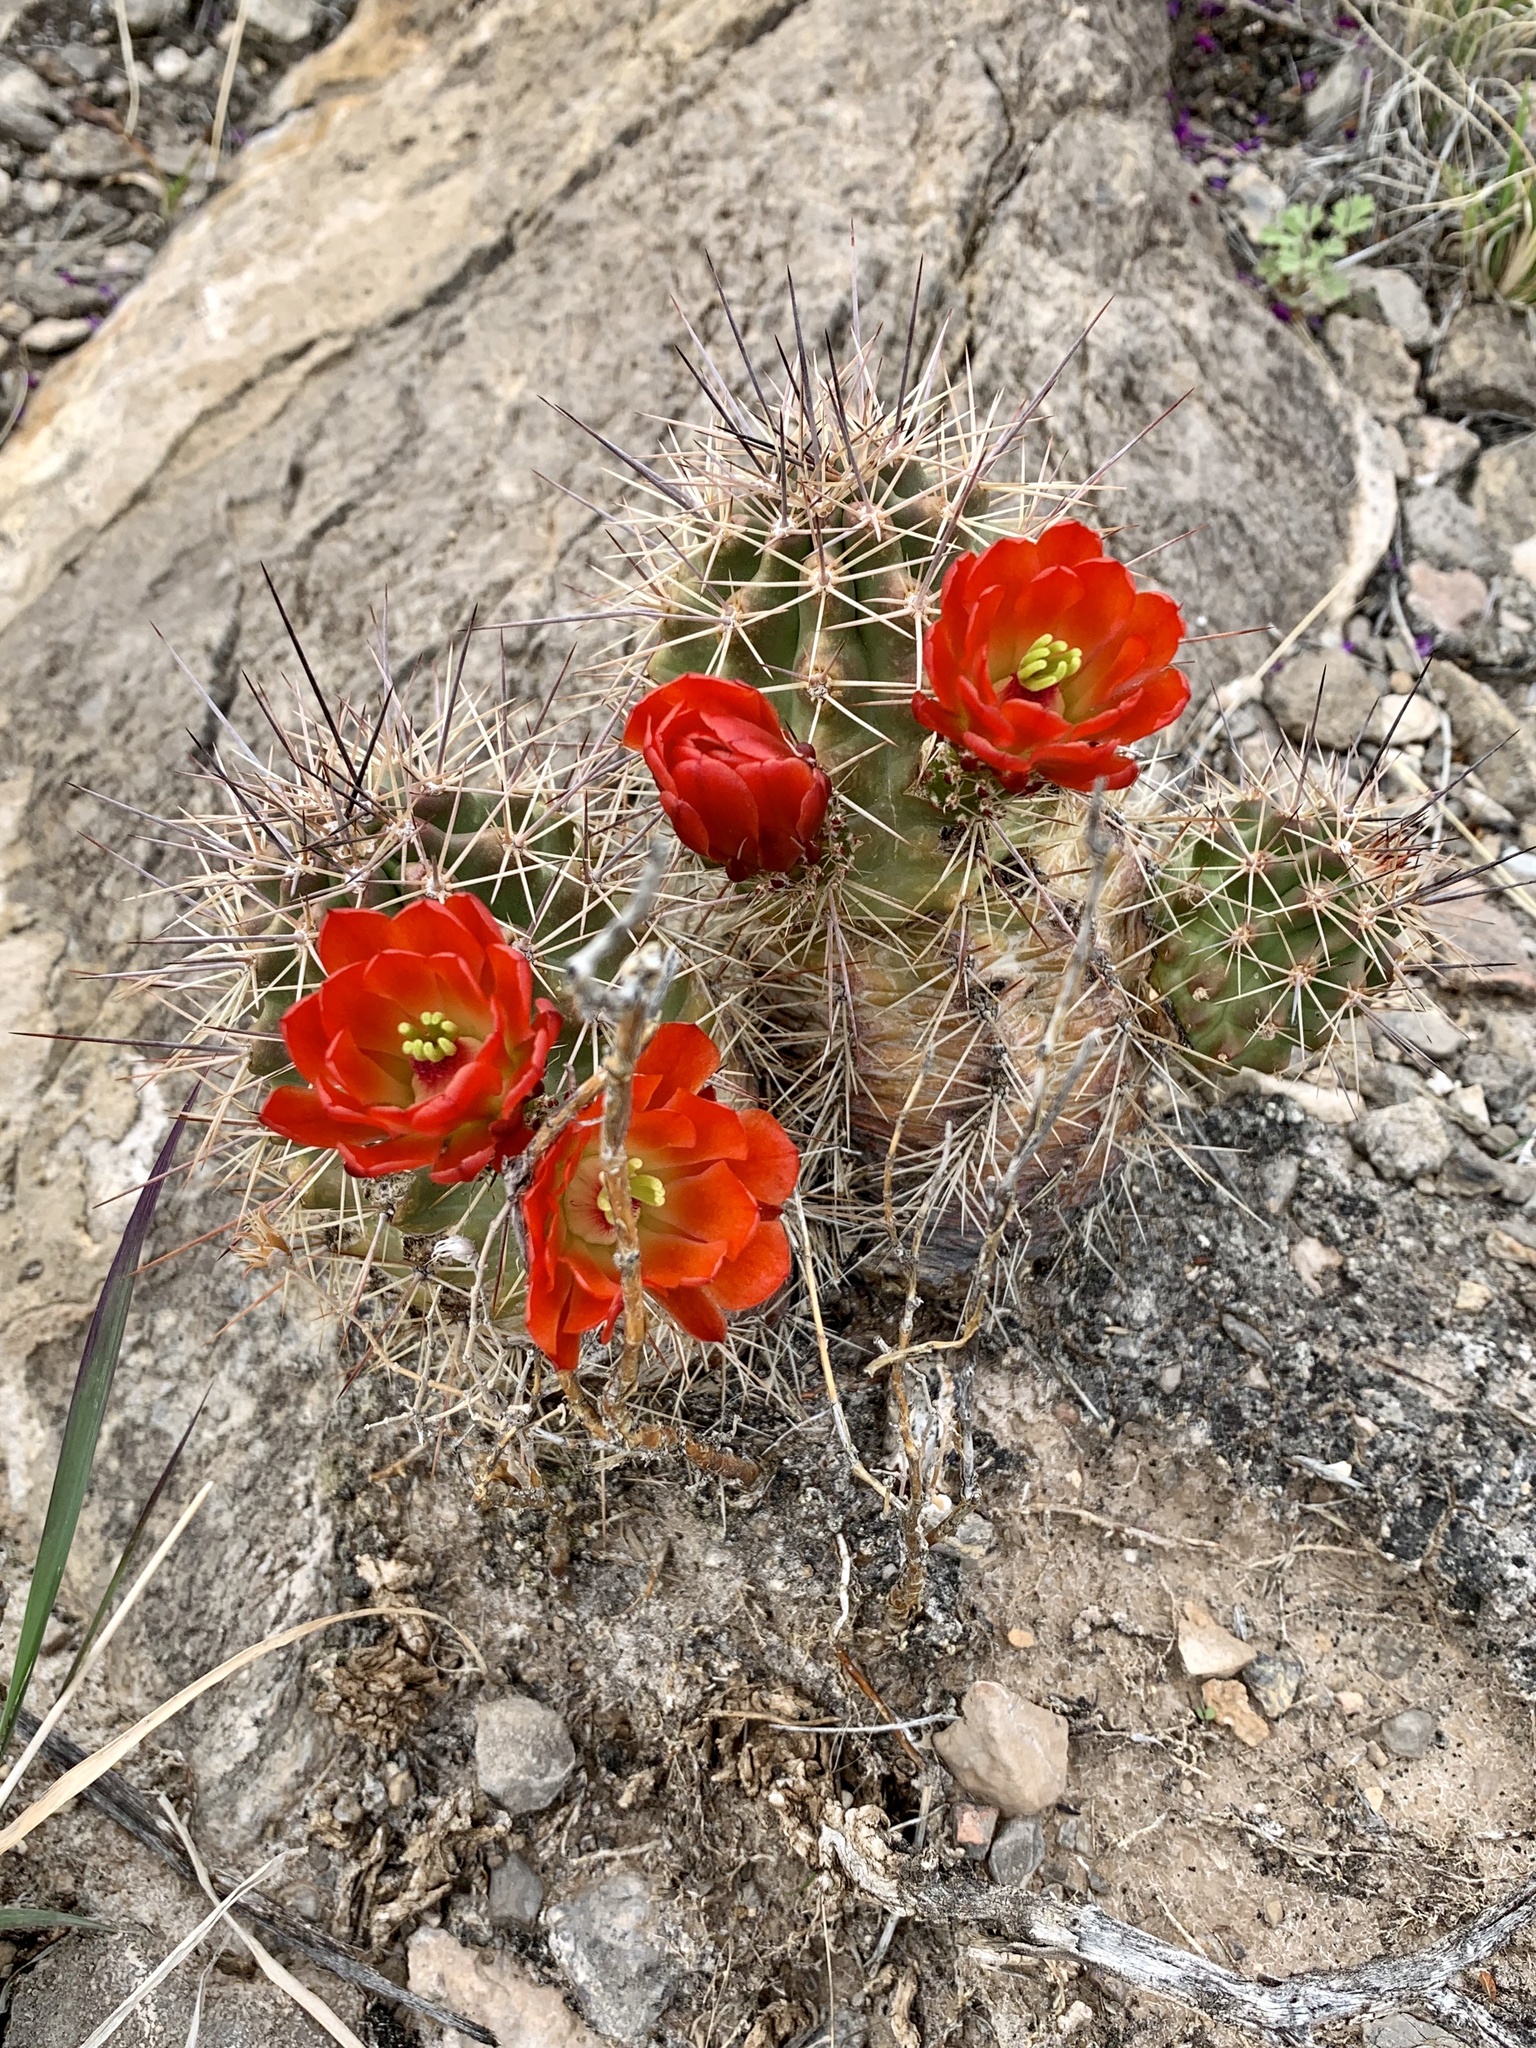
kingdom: Plantae
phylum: Tracheophyta
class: Magnoliopsida
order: Caryophyllales
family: Cactaceae
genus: Echinocereus
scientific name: Echinocereus coccineus
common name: Scarlet hedgehog cactus
